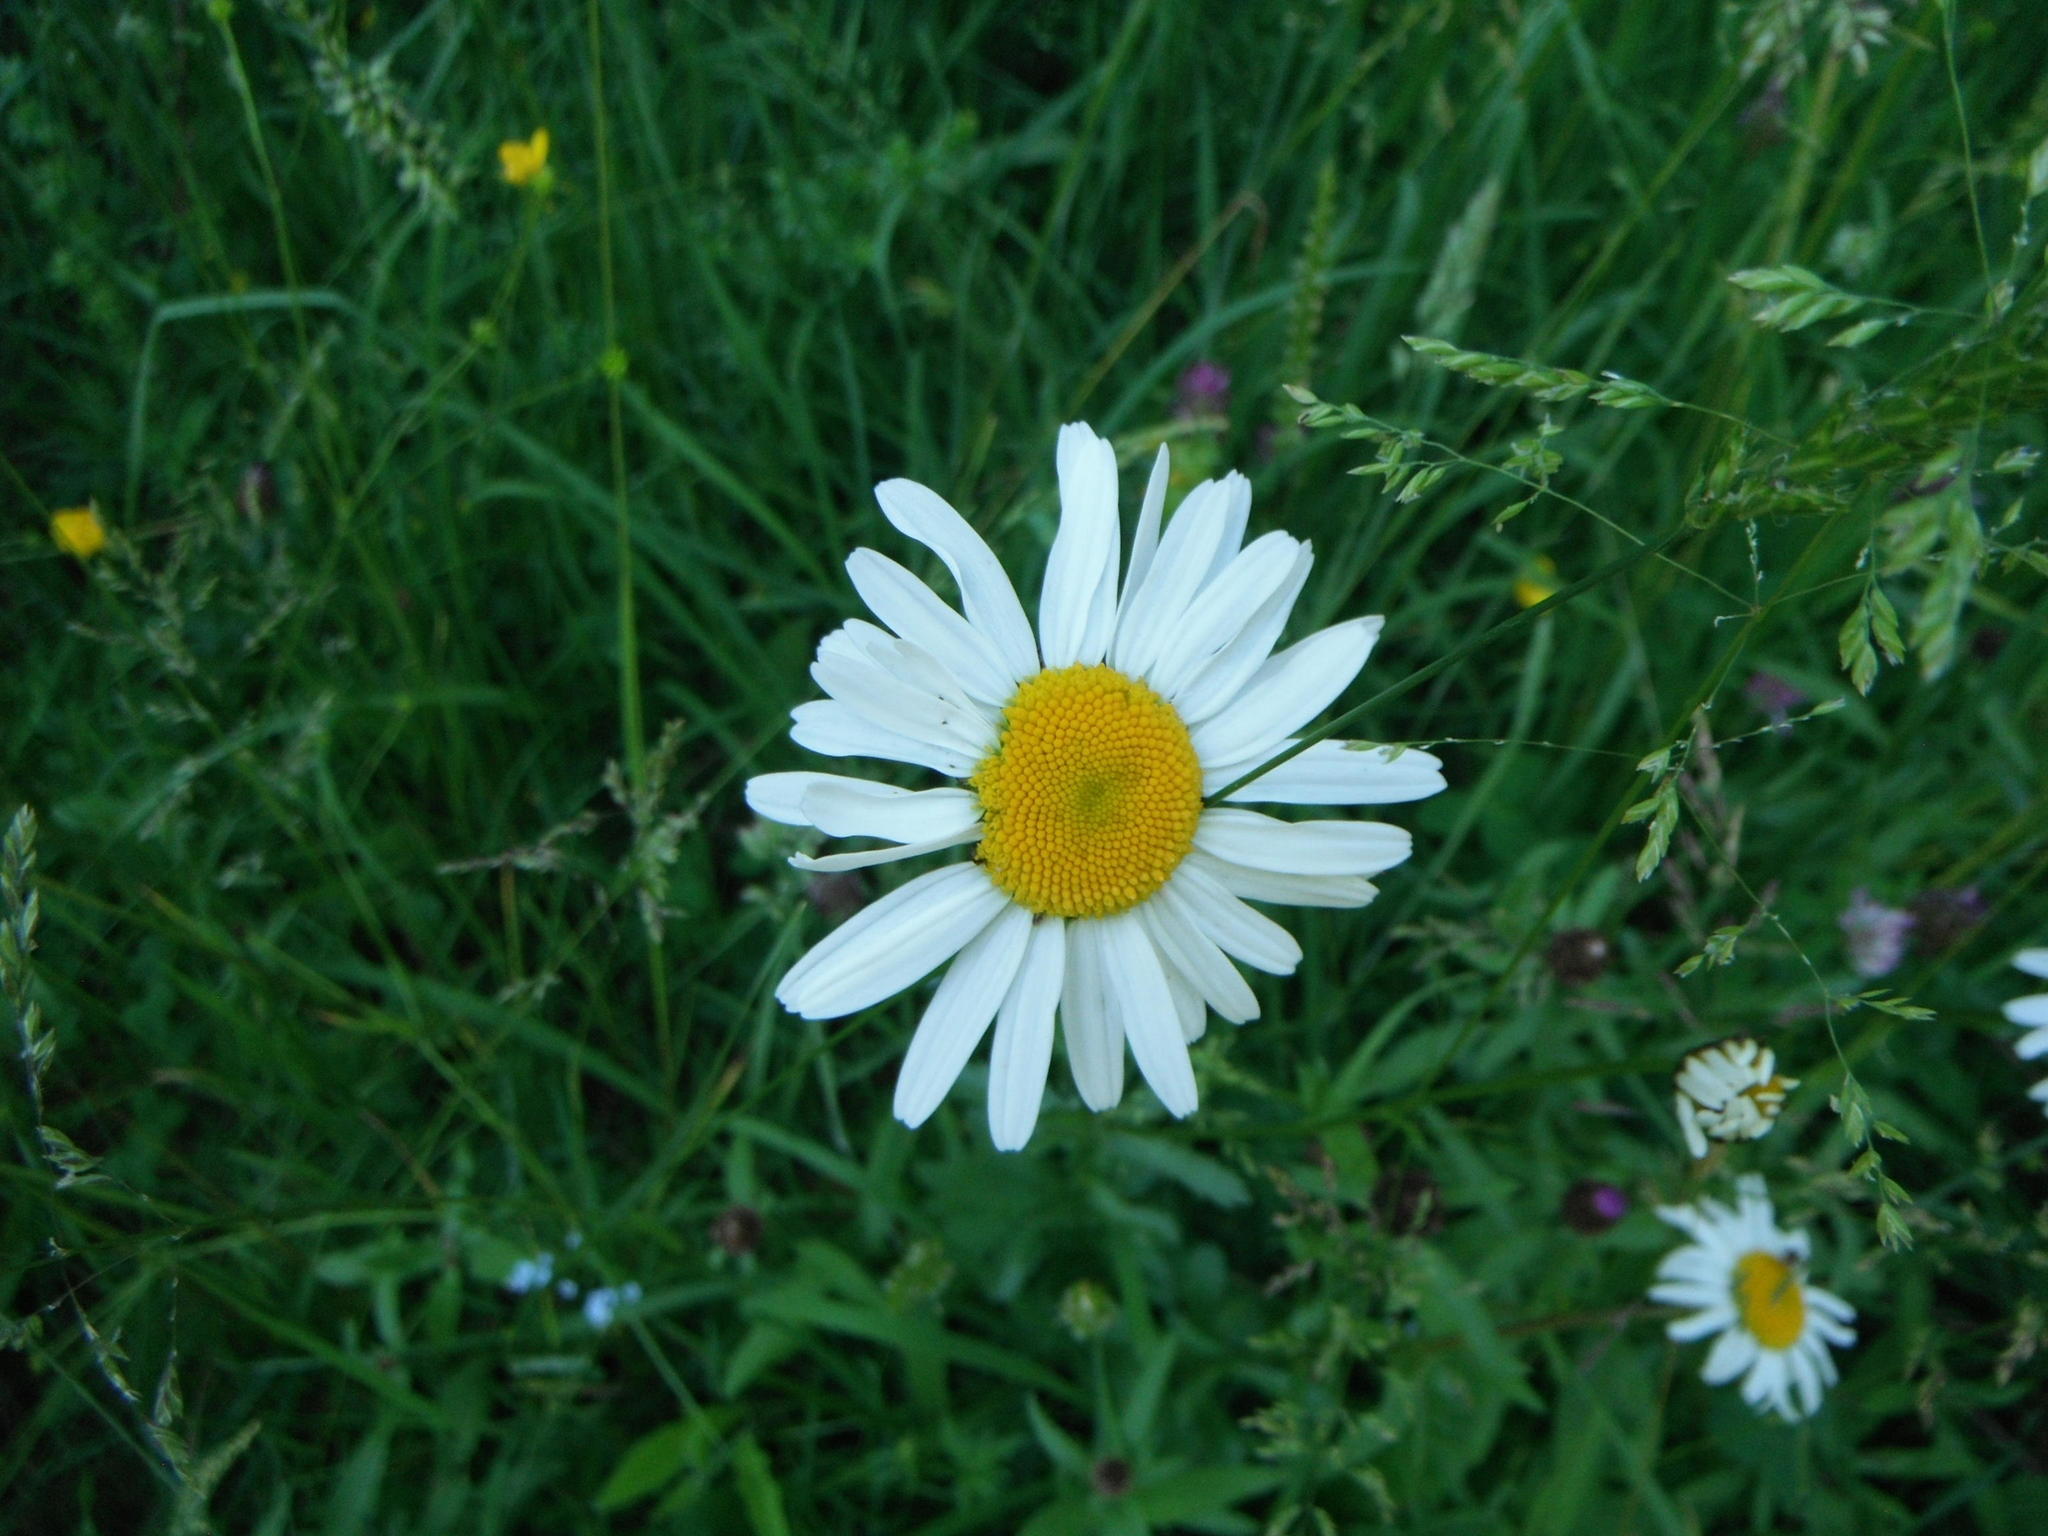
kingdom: Plantae
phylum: Tracheophyta
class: Magnoliopsida
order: Asterales
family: Asteraceae
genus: Leucanthemum
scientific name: Leucanthemum vulgare
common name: Oxeye daisy
